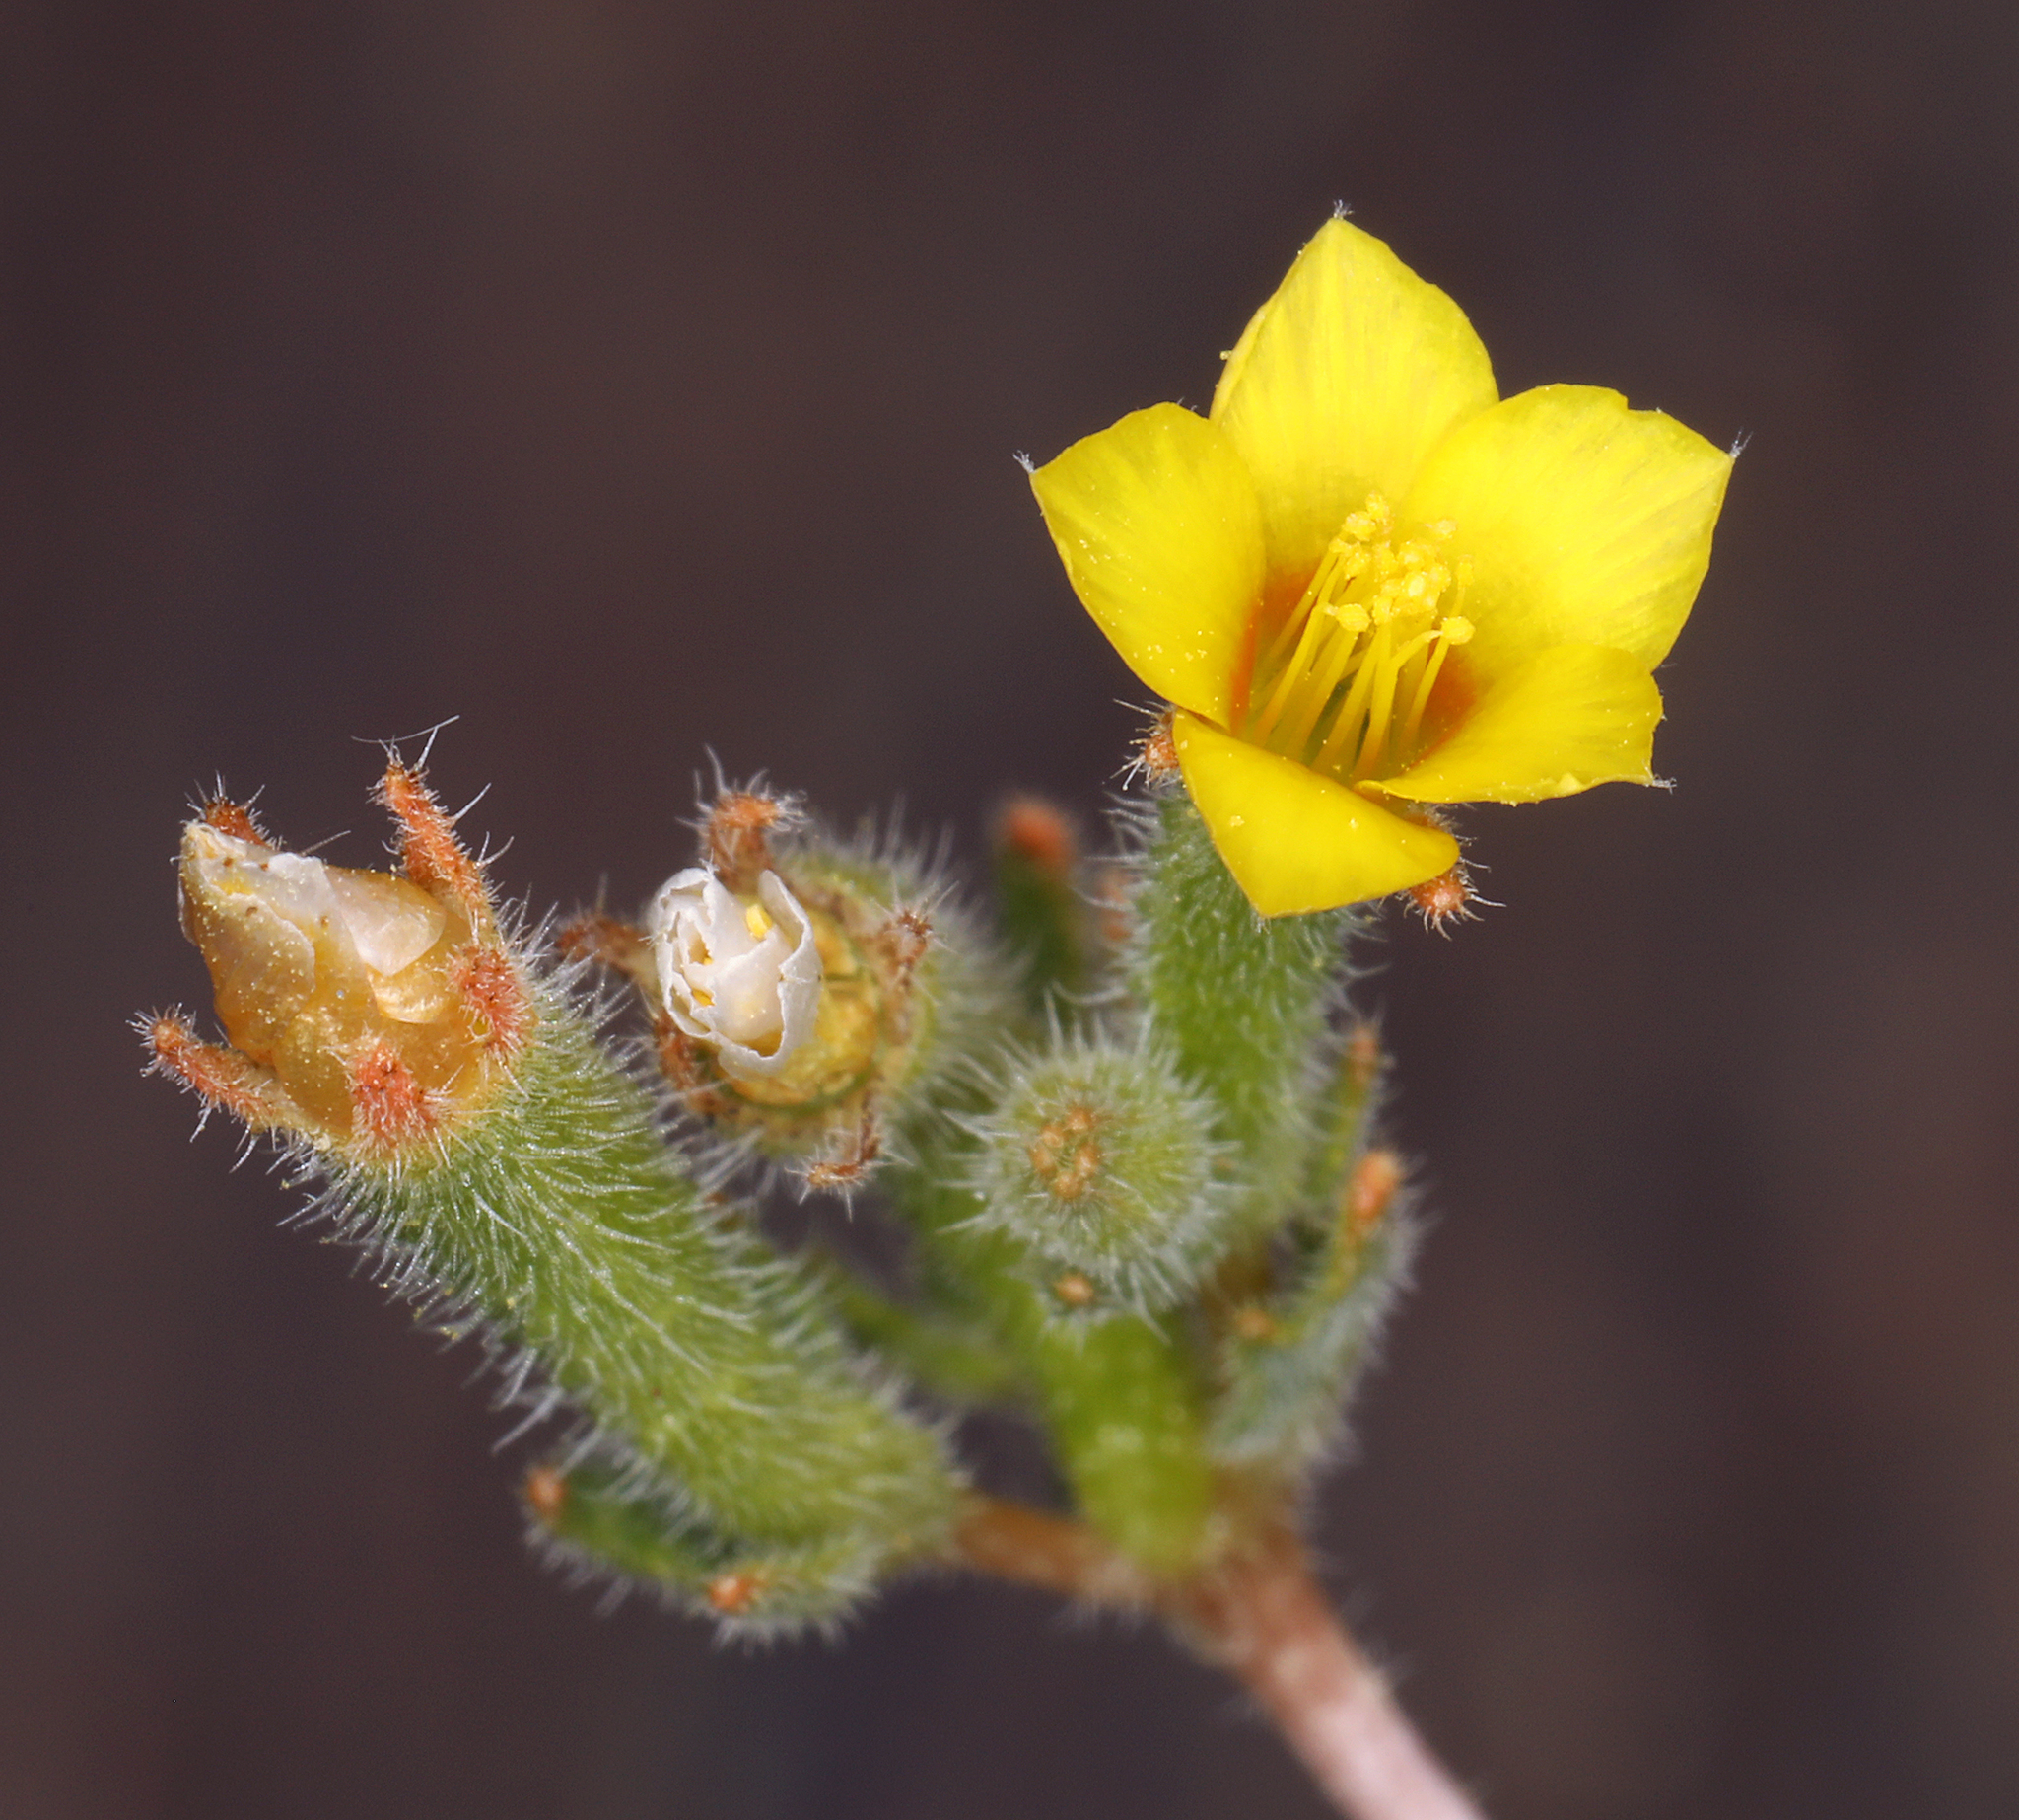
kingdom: Plantae
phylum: Tracheophyta
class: Magnoliopsida
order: Cornales
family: Loasaceae
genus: Mentzelia
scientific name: Mentzelia albicaulis
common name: White-stem blazingstar
